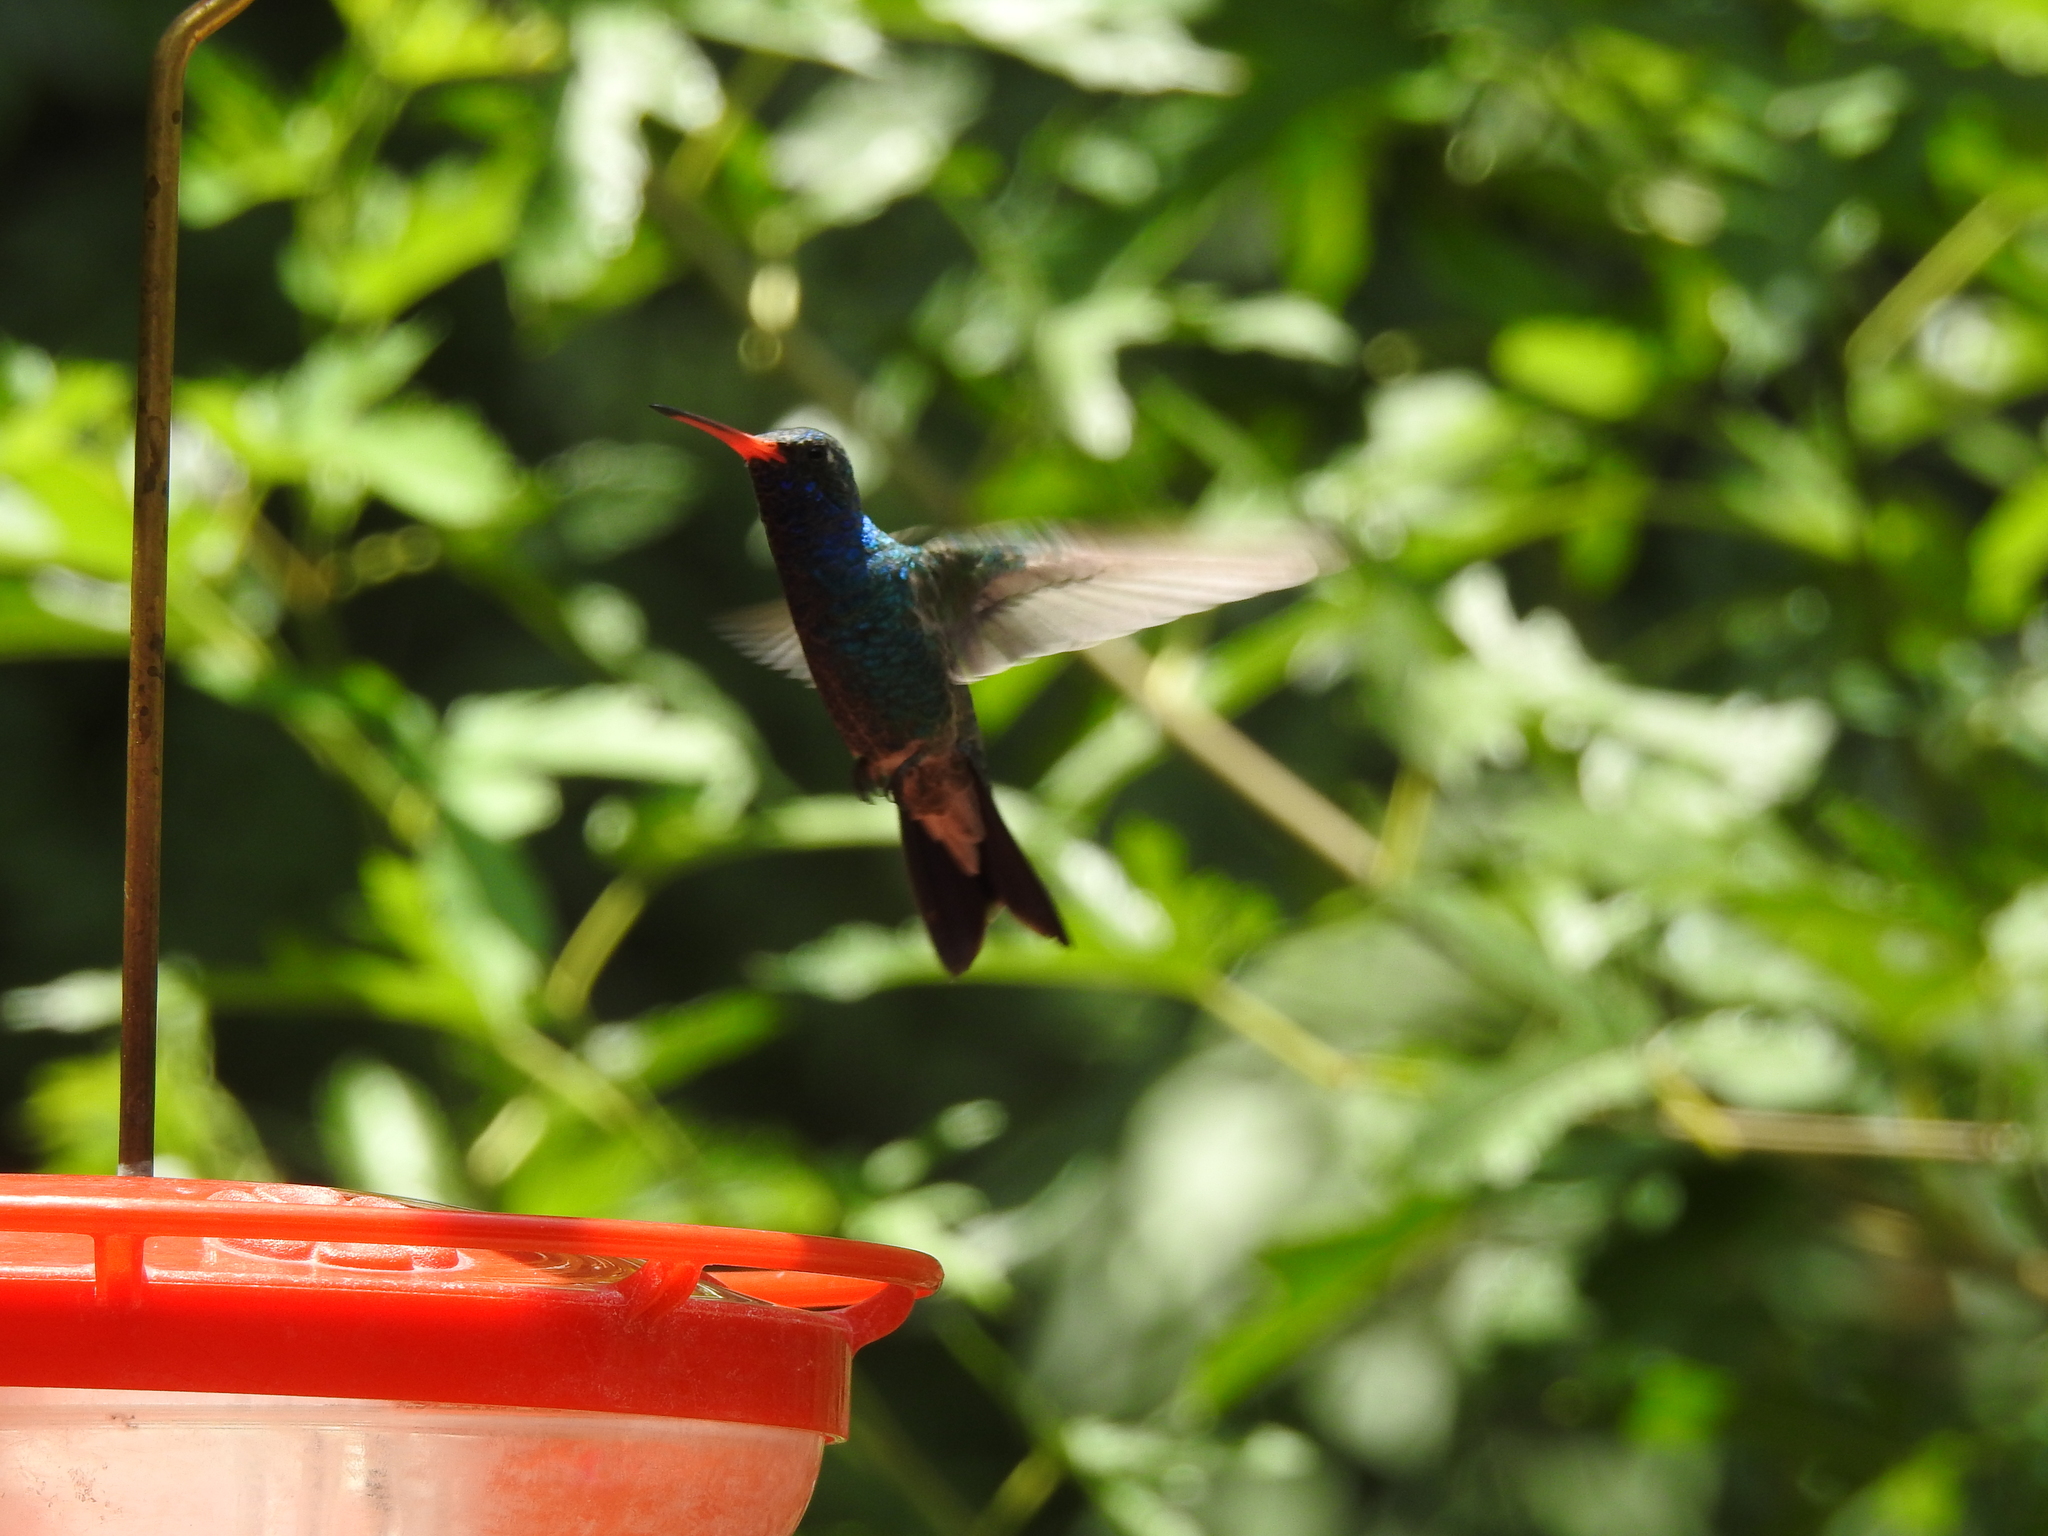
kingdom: Animalia
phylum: Chordata
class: Aves
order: Apodiformes
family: Trochilidae
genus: Cynanthus
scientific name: Cynanthus latirostris
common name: Broad-billed hummingbird
